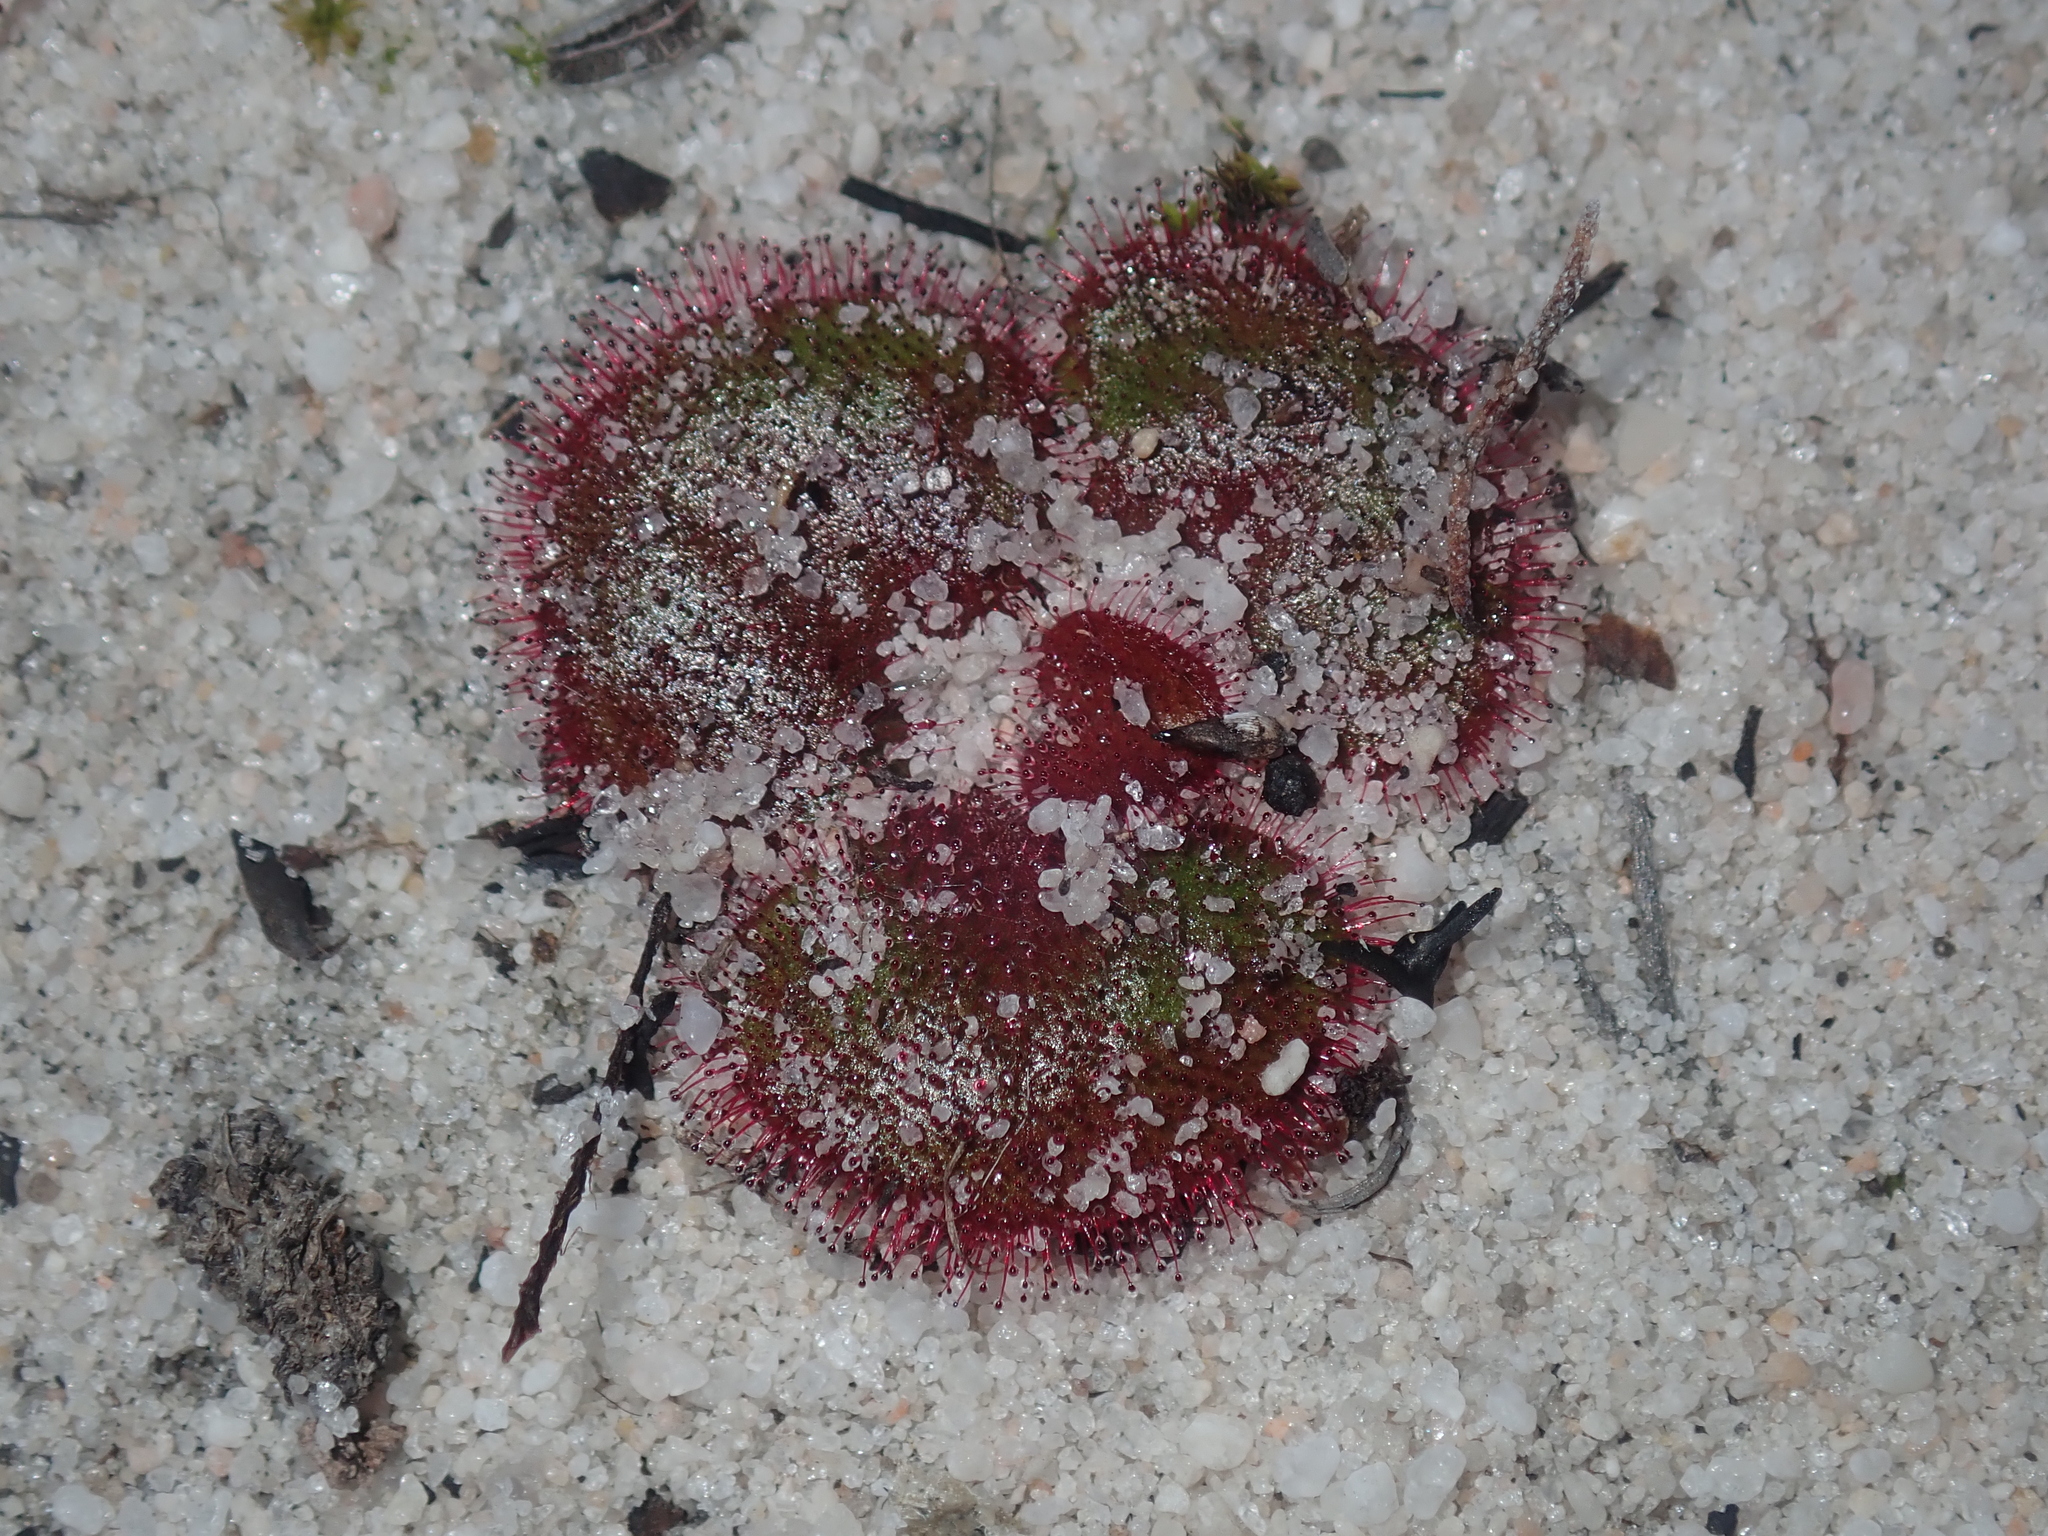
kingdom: Plantae
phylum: Tracheophyta
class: Magnoliopsida
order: Caryophyllales
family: Droseraceae
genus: Drosera
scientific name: Drosera erythrorhiza
